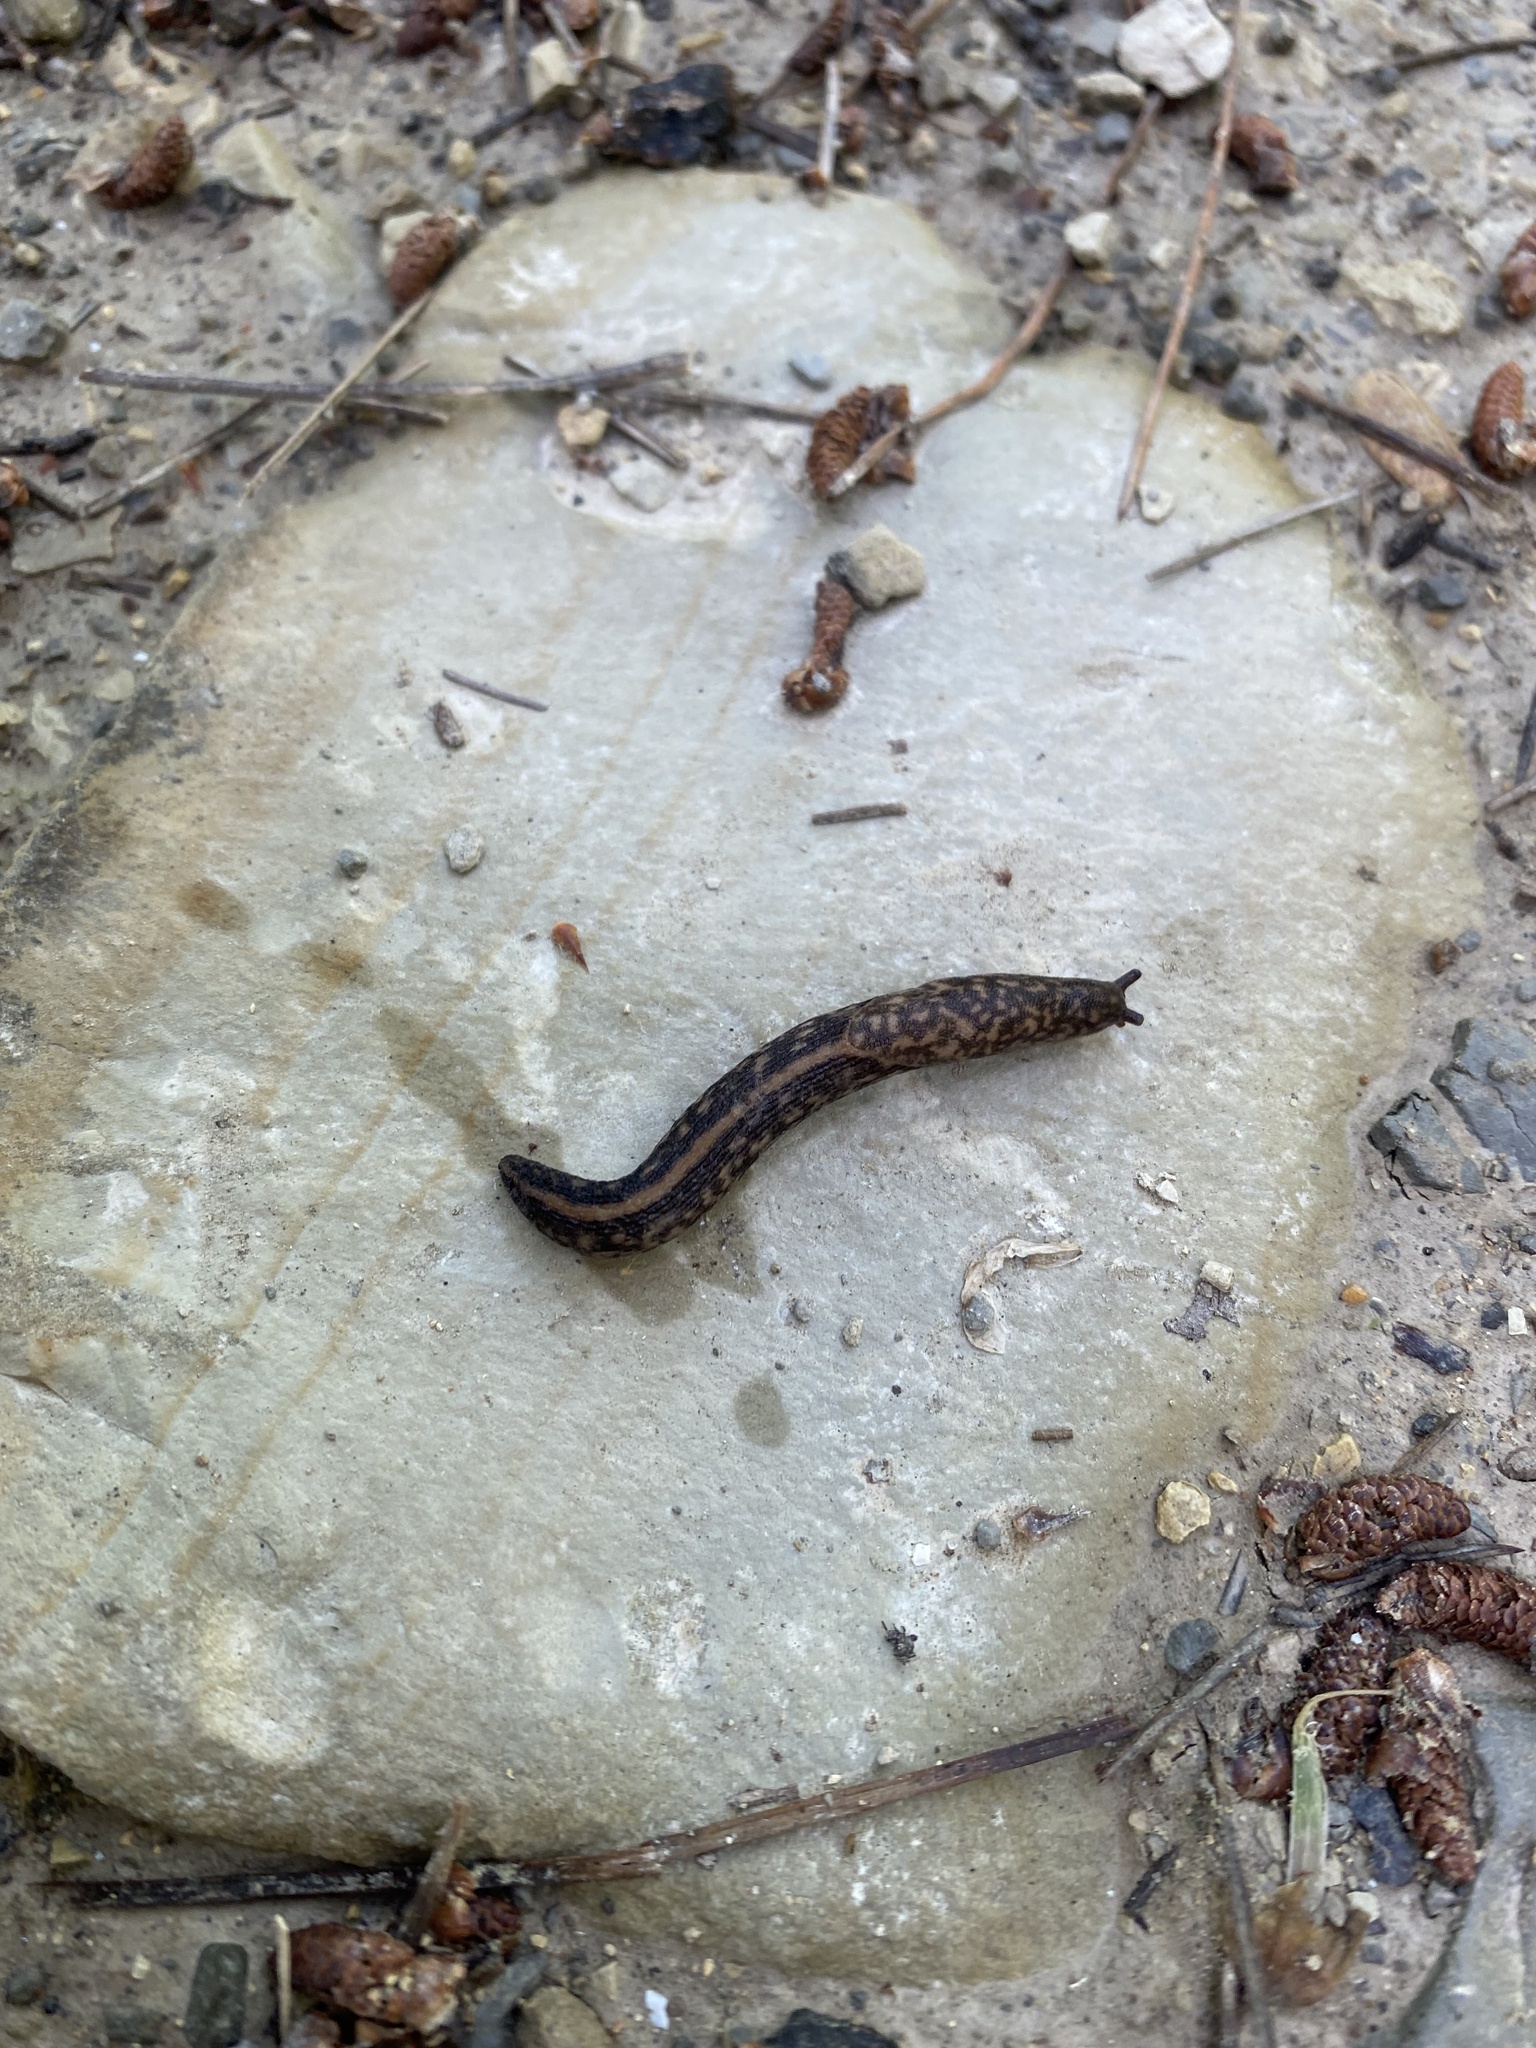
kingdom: Animalia
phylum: Mollusca
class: Gastropoda
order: Stylommatophora
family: Limacidae
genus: Metalimax
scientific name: Metalimax varius
